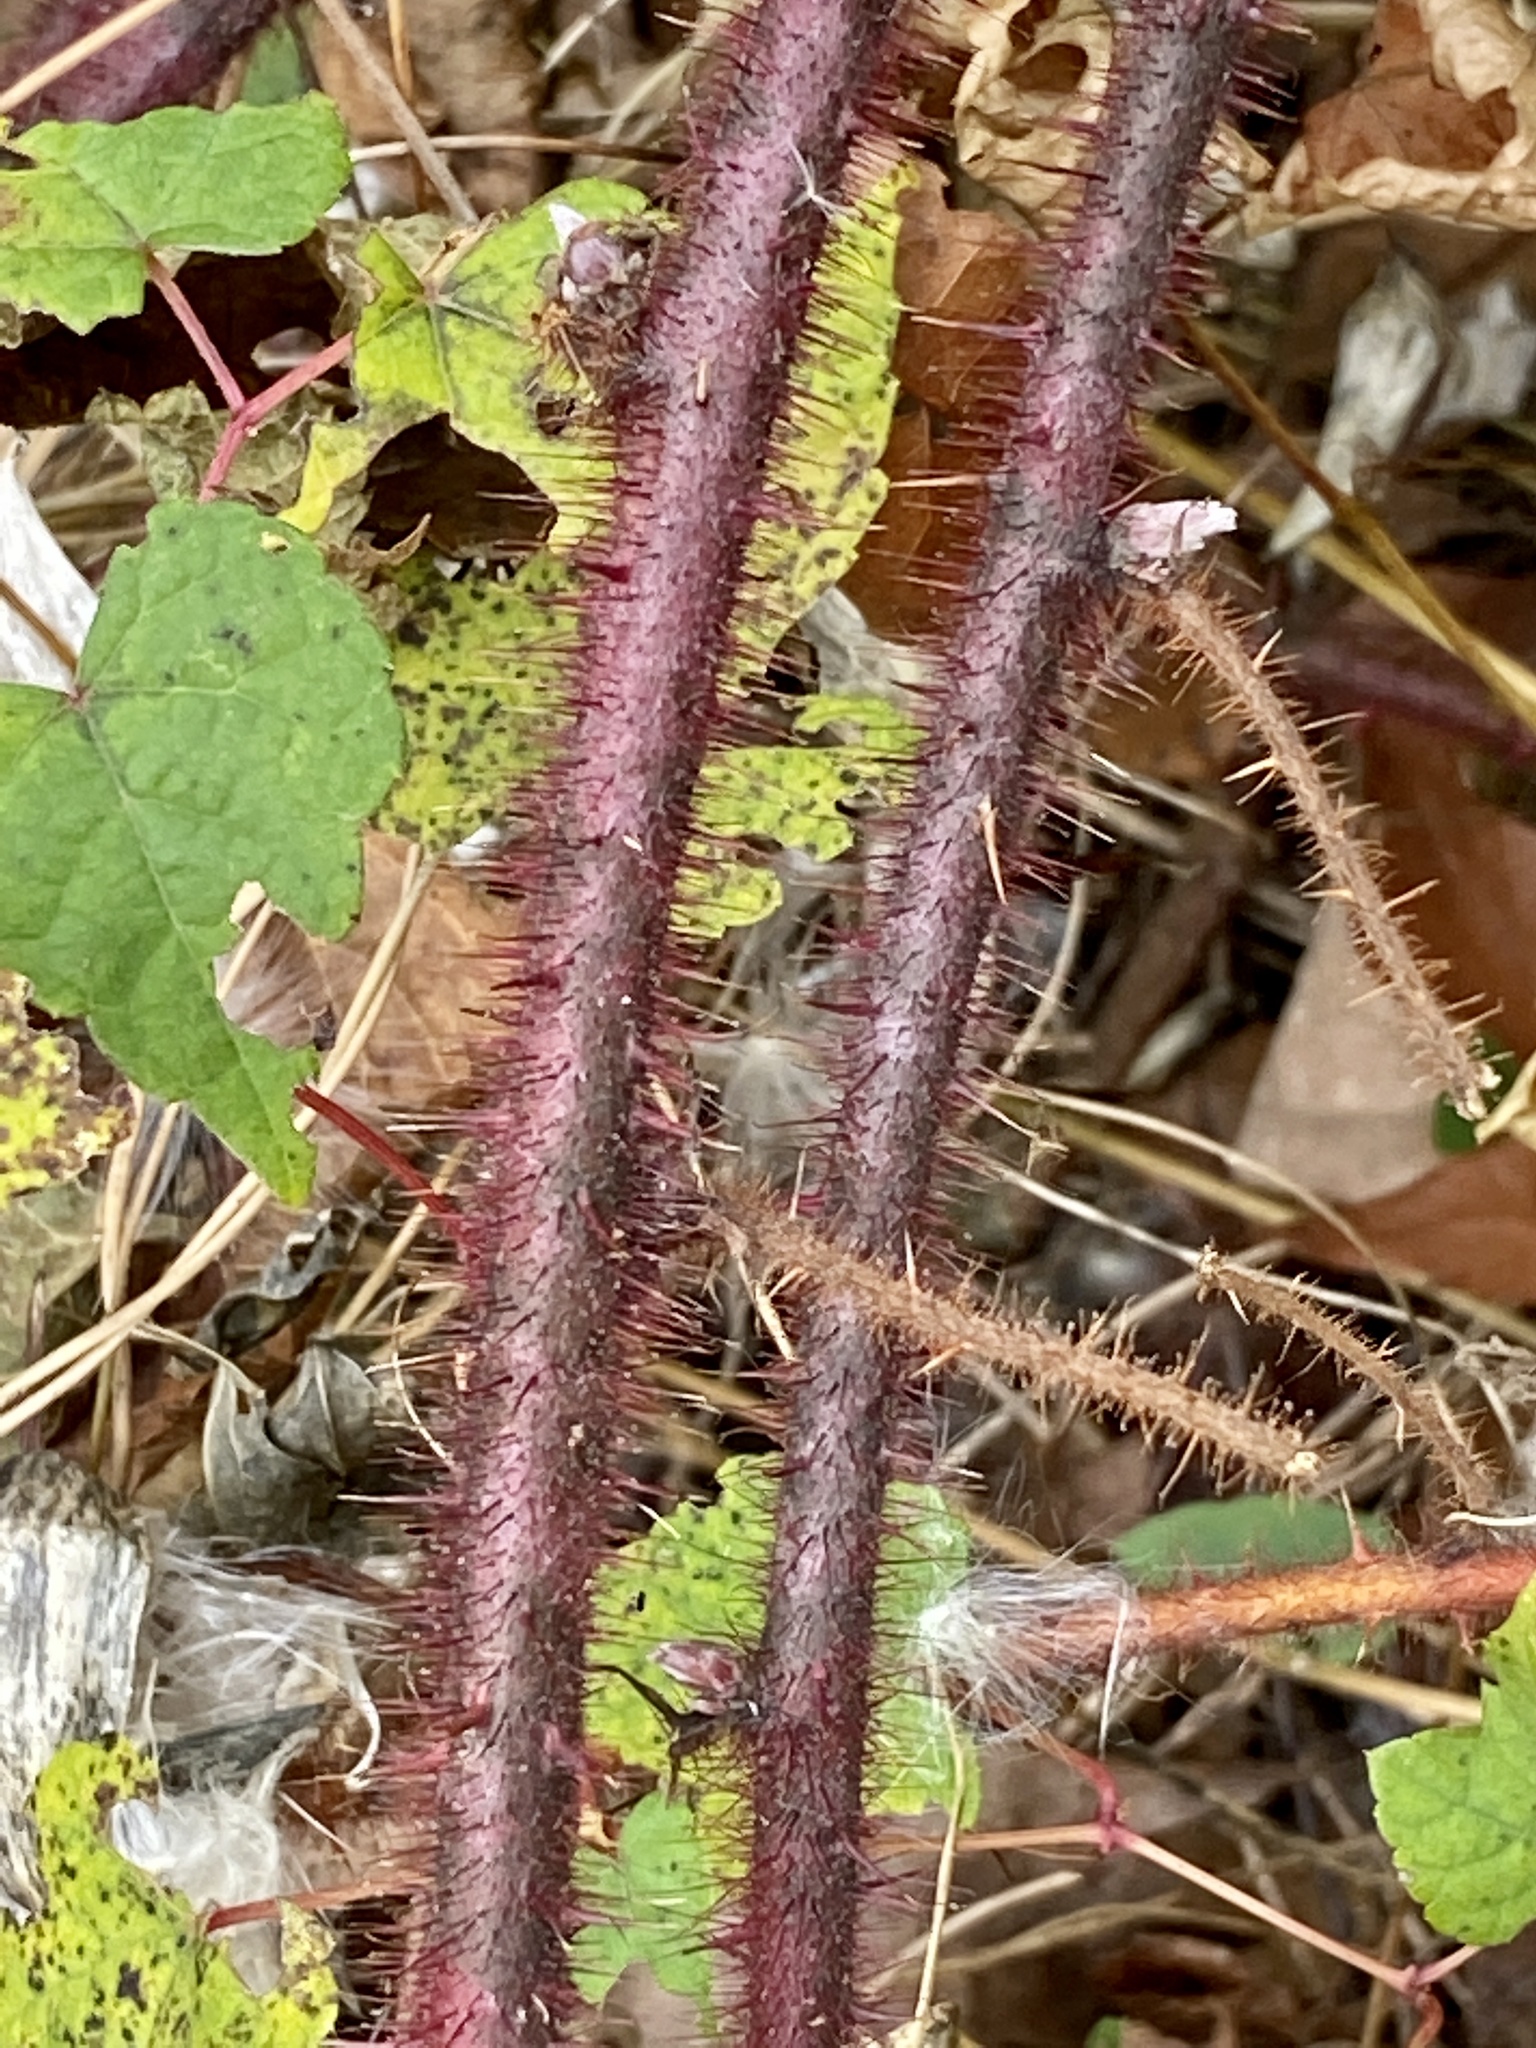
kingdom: Plantae
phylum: Tracheophyta
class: Magnoliopsida
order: Rosales
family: Rosaceae
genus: Rubus
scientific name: Rubus phoenicolasius
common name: Japanese wineberry
